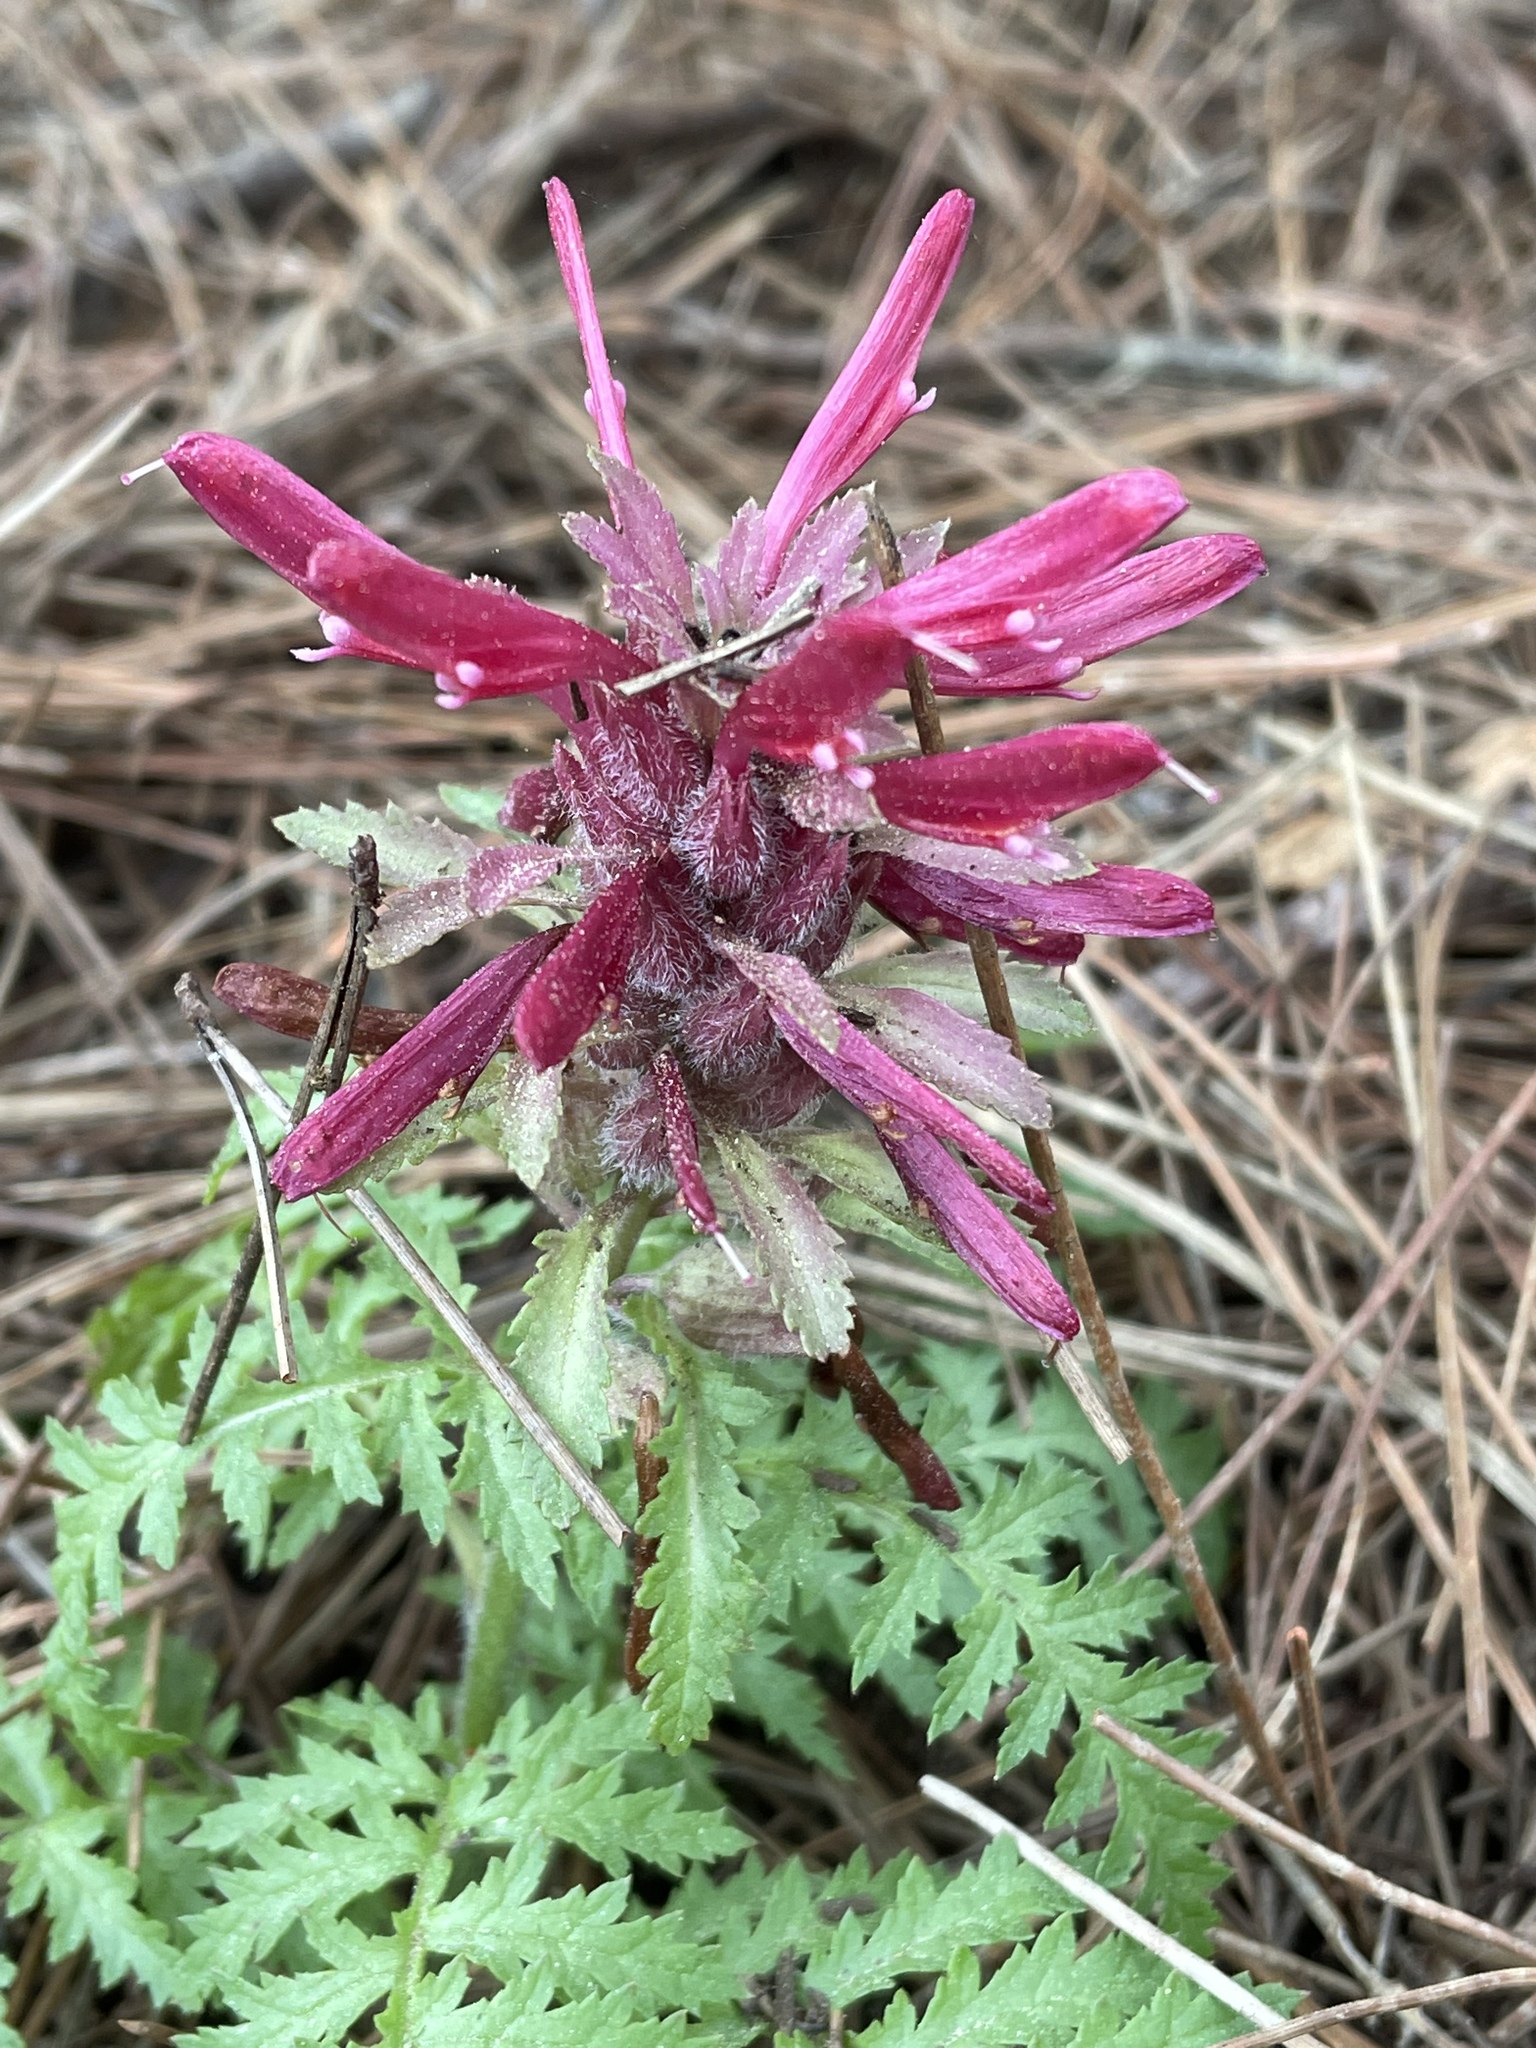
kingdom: Plantae
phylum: Tracheophyta
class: Magnoliopsida
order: Lamiales
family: Orobanchaceae
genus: Pedicularis
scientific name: Pedicularis densiflora
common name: Indian warrior
